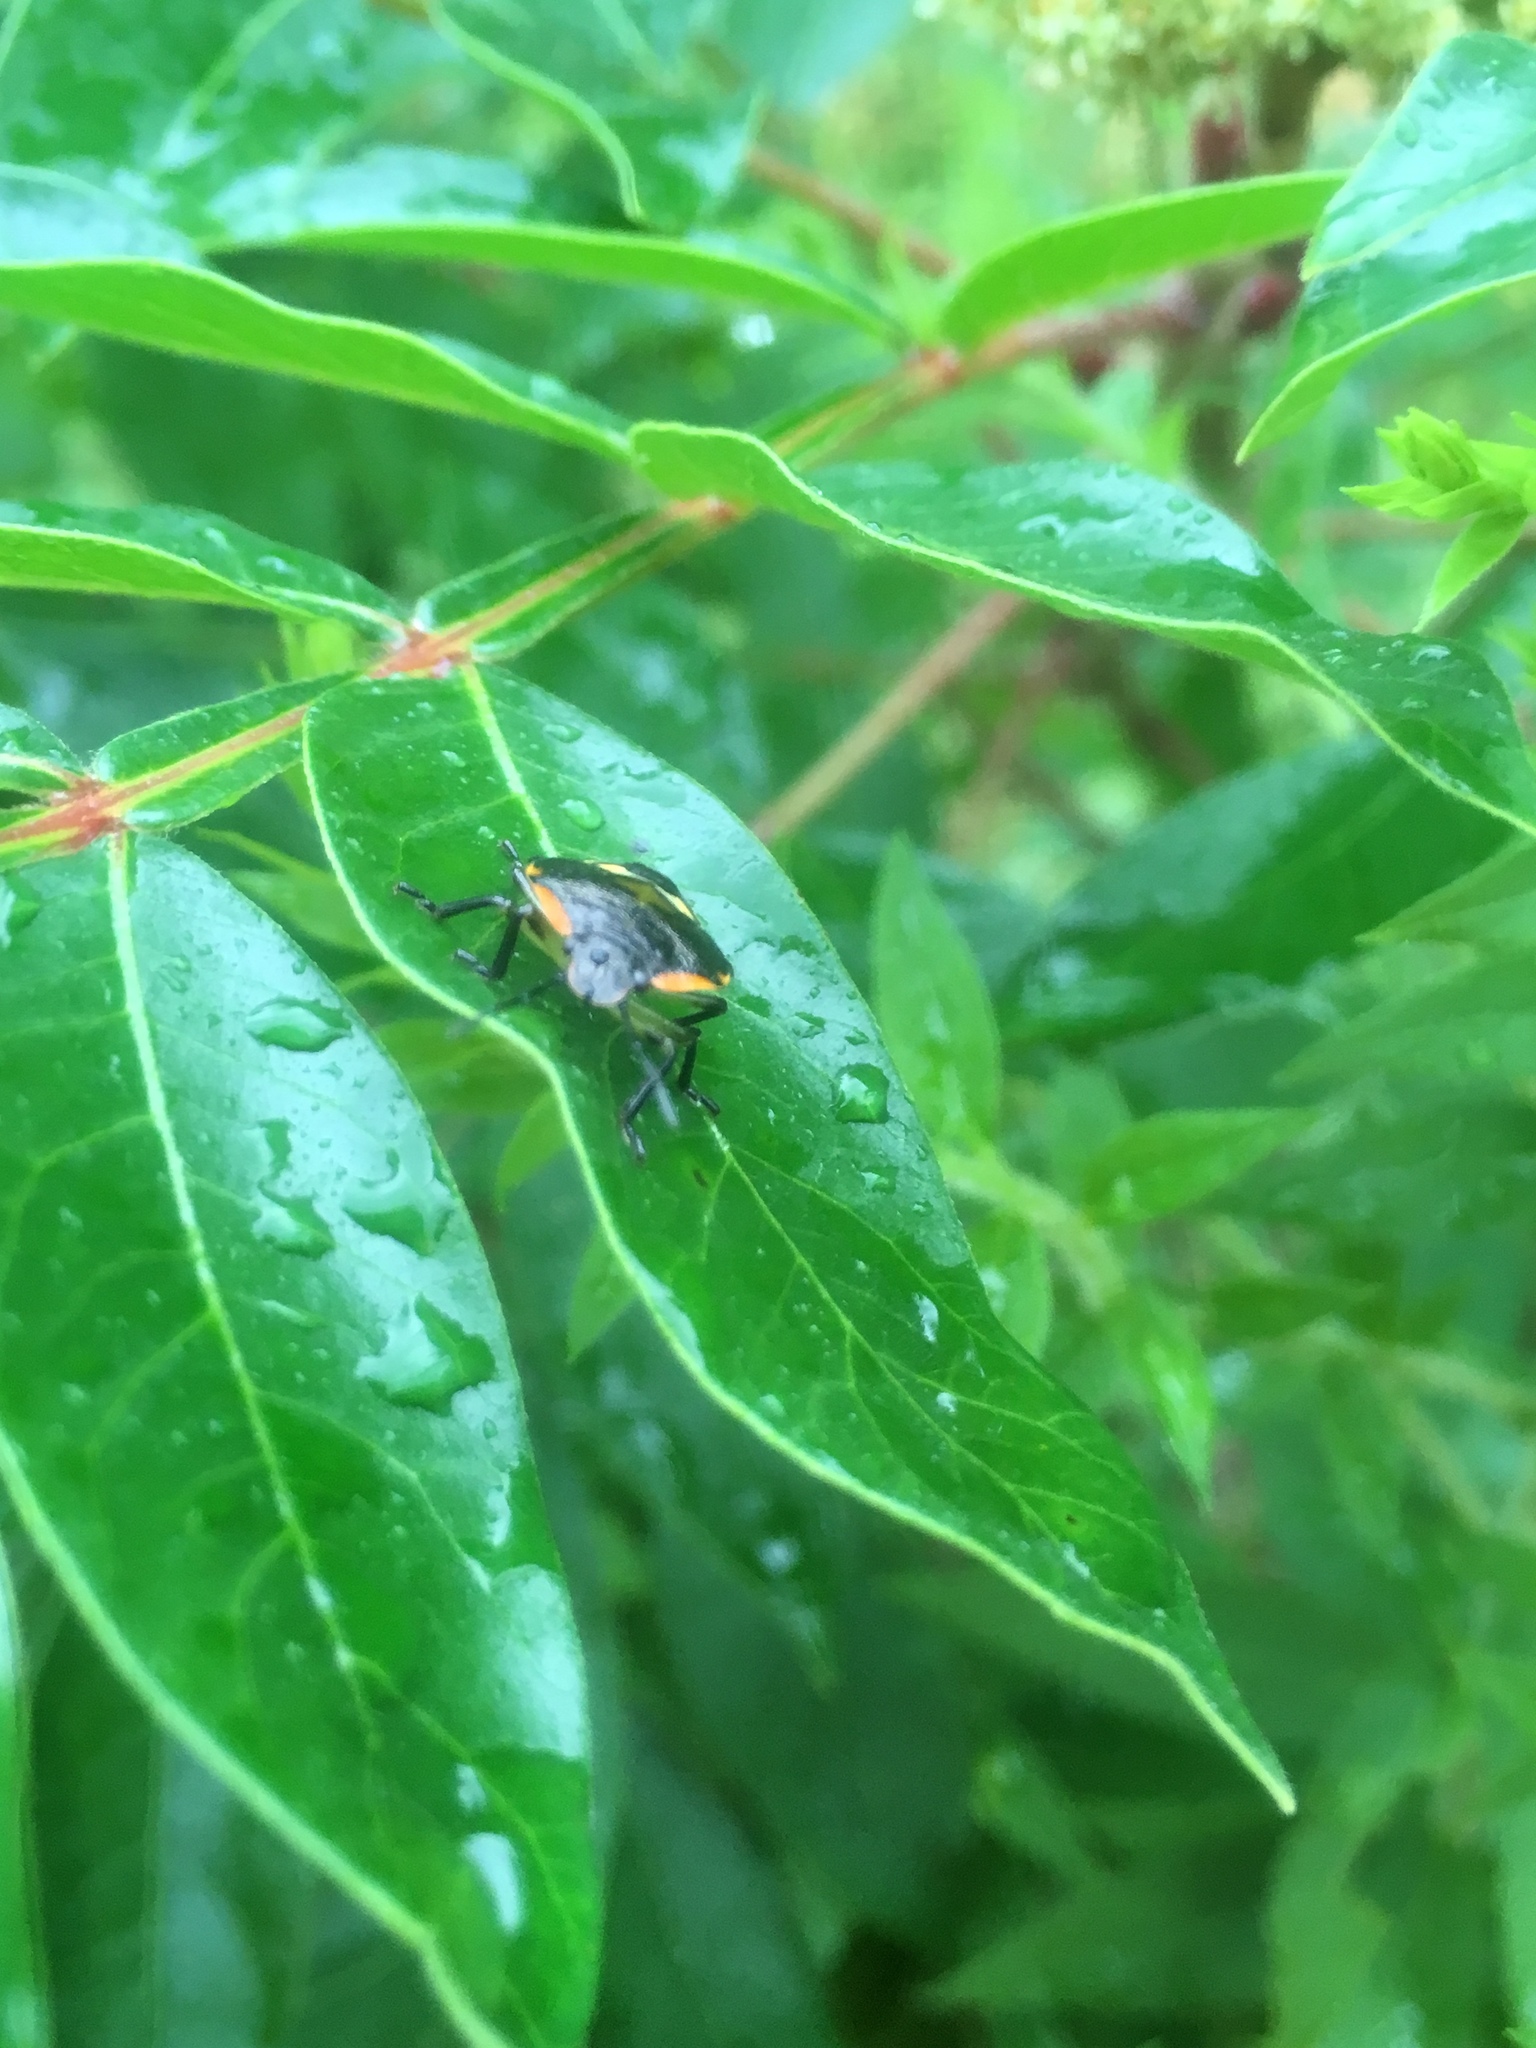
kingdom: Animalia
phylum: Arthropoda
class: Insecta
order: Hemiptera
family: Pentatomidae
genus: Chinavia
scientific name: Chinavia hilaris
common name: Green stink bug
